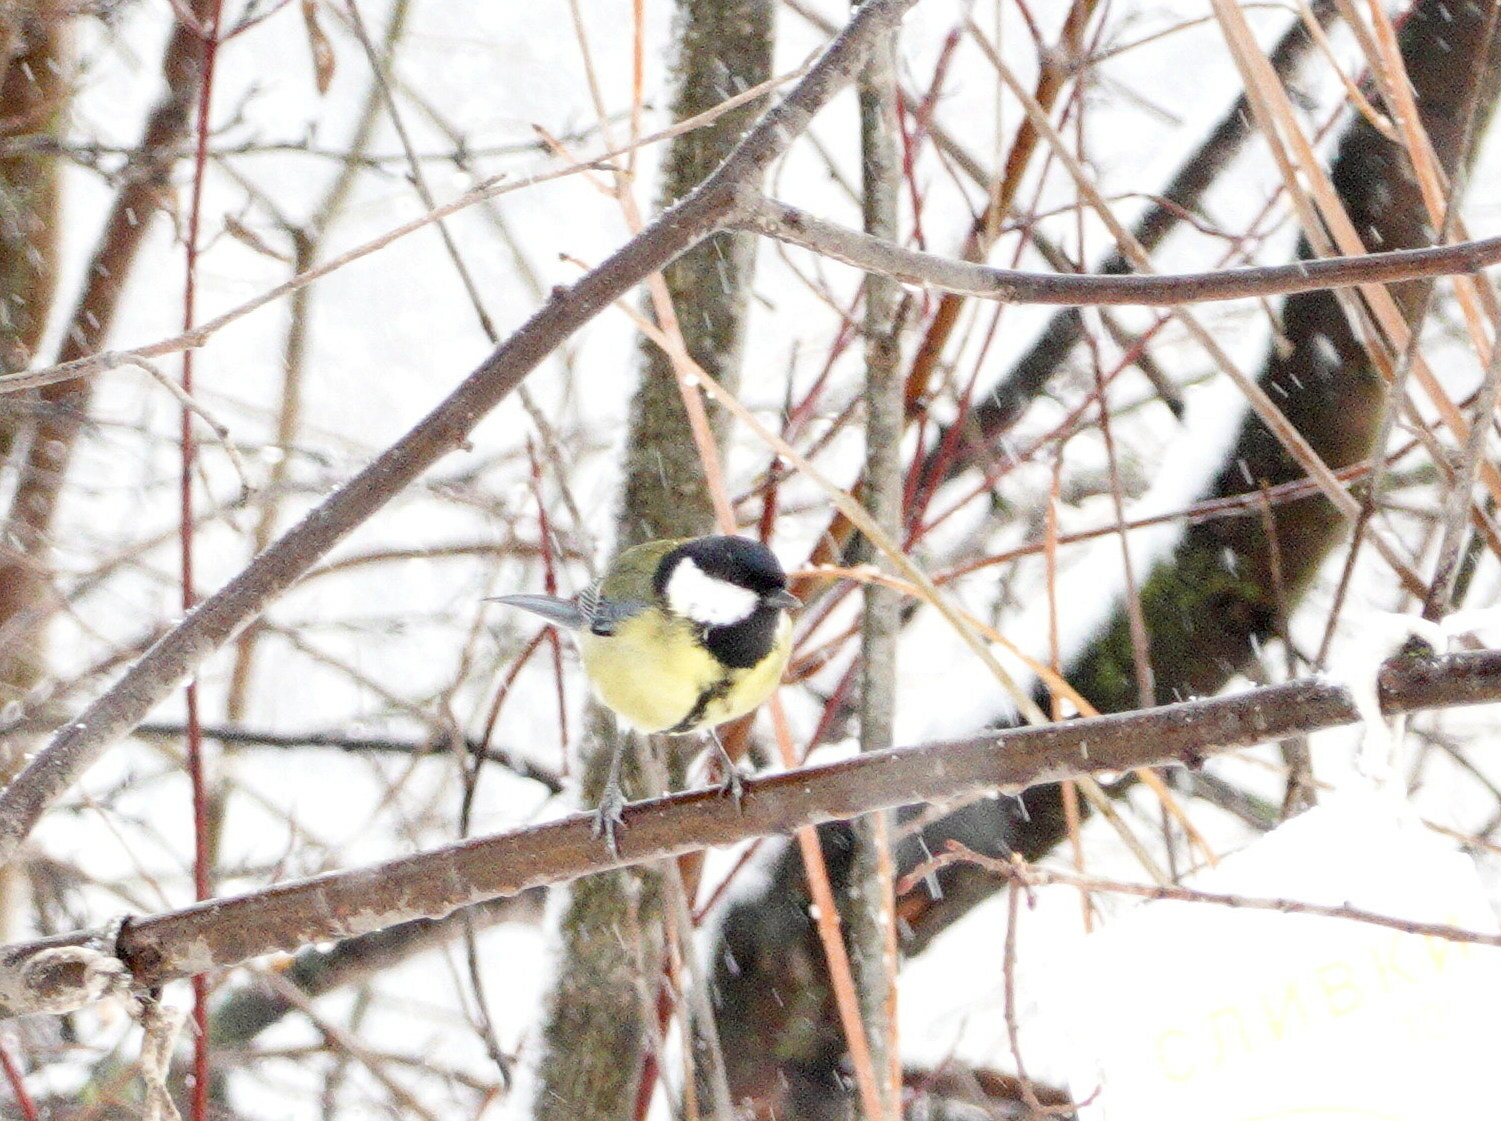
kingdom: Animalia
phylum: Chordata
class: Aves
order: Passeriformes
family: Paridae
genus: Parus
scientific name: Parus major
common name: Great tit
